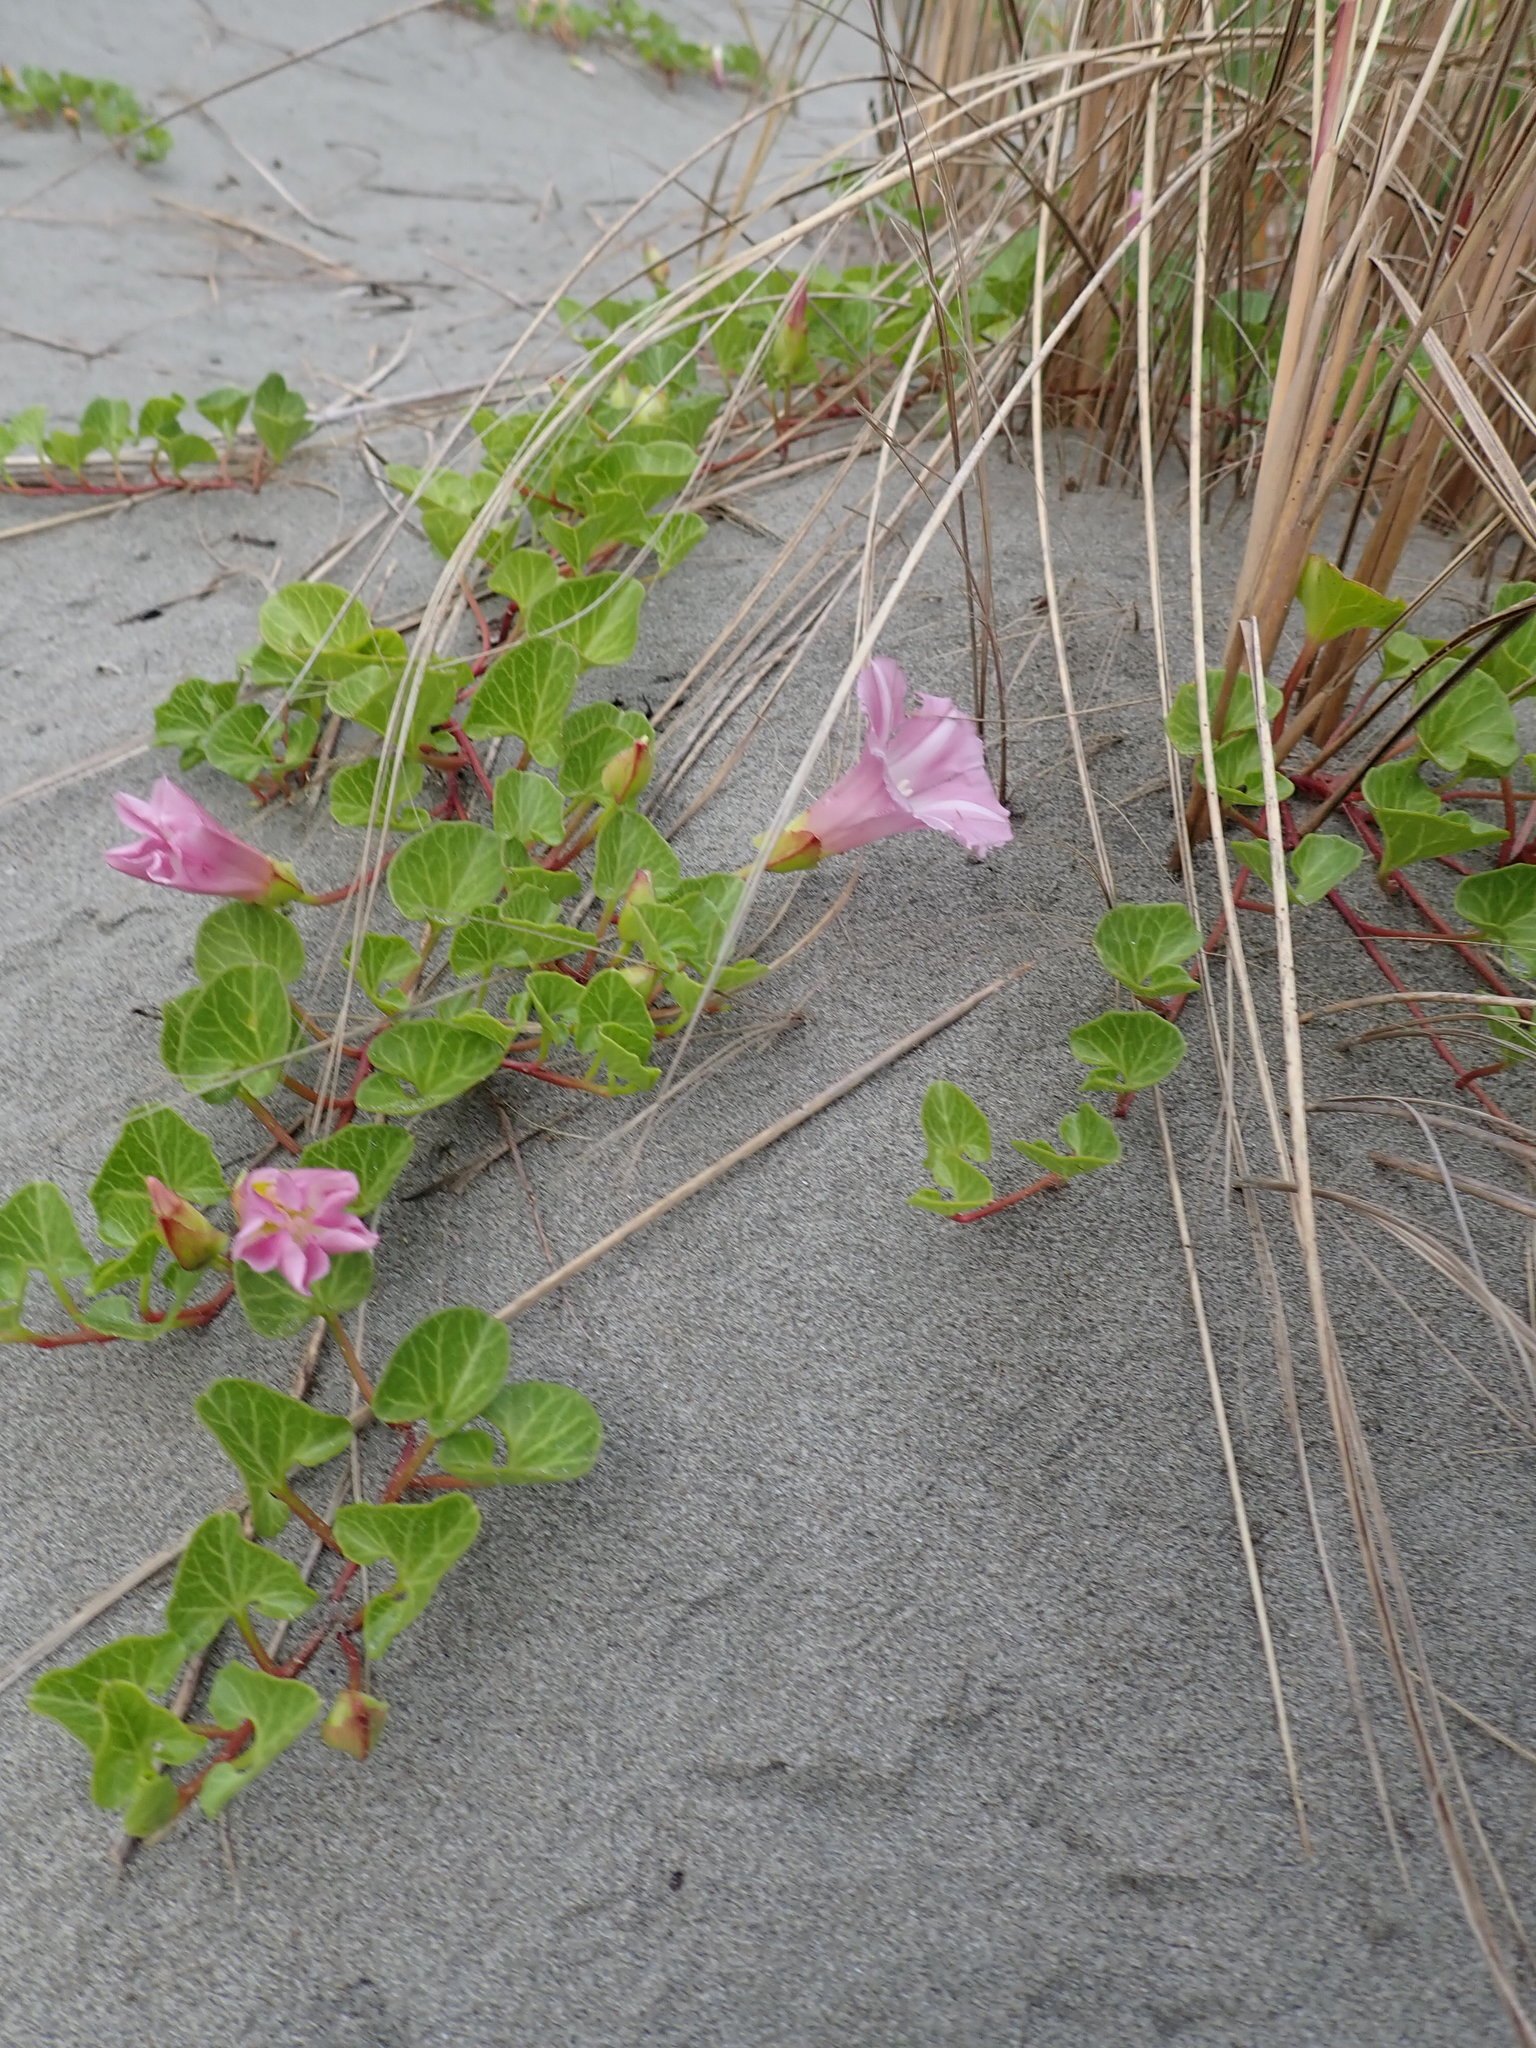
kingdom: Plantae
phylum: Tracheophyta
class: Magnoliopsida
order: Solanales
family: Convolvulaceae
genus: Calystegia
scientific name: Calystegia soldanella
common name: Sea bindweed
